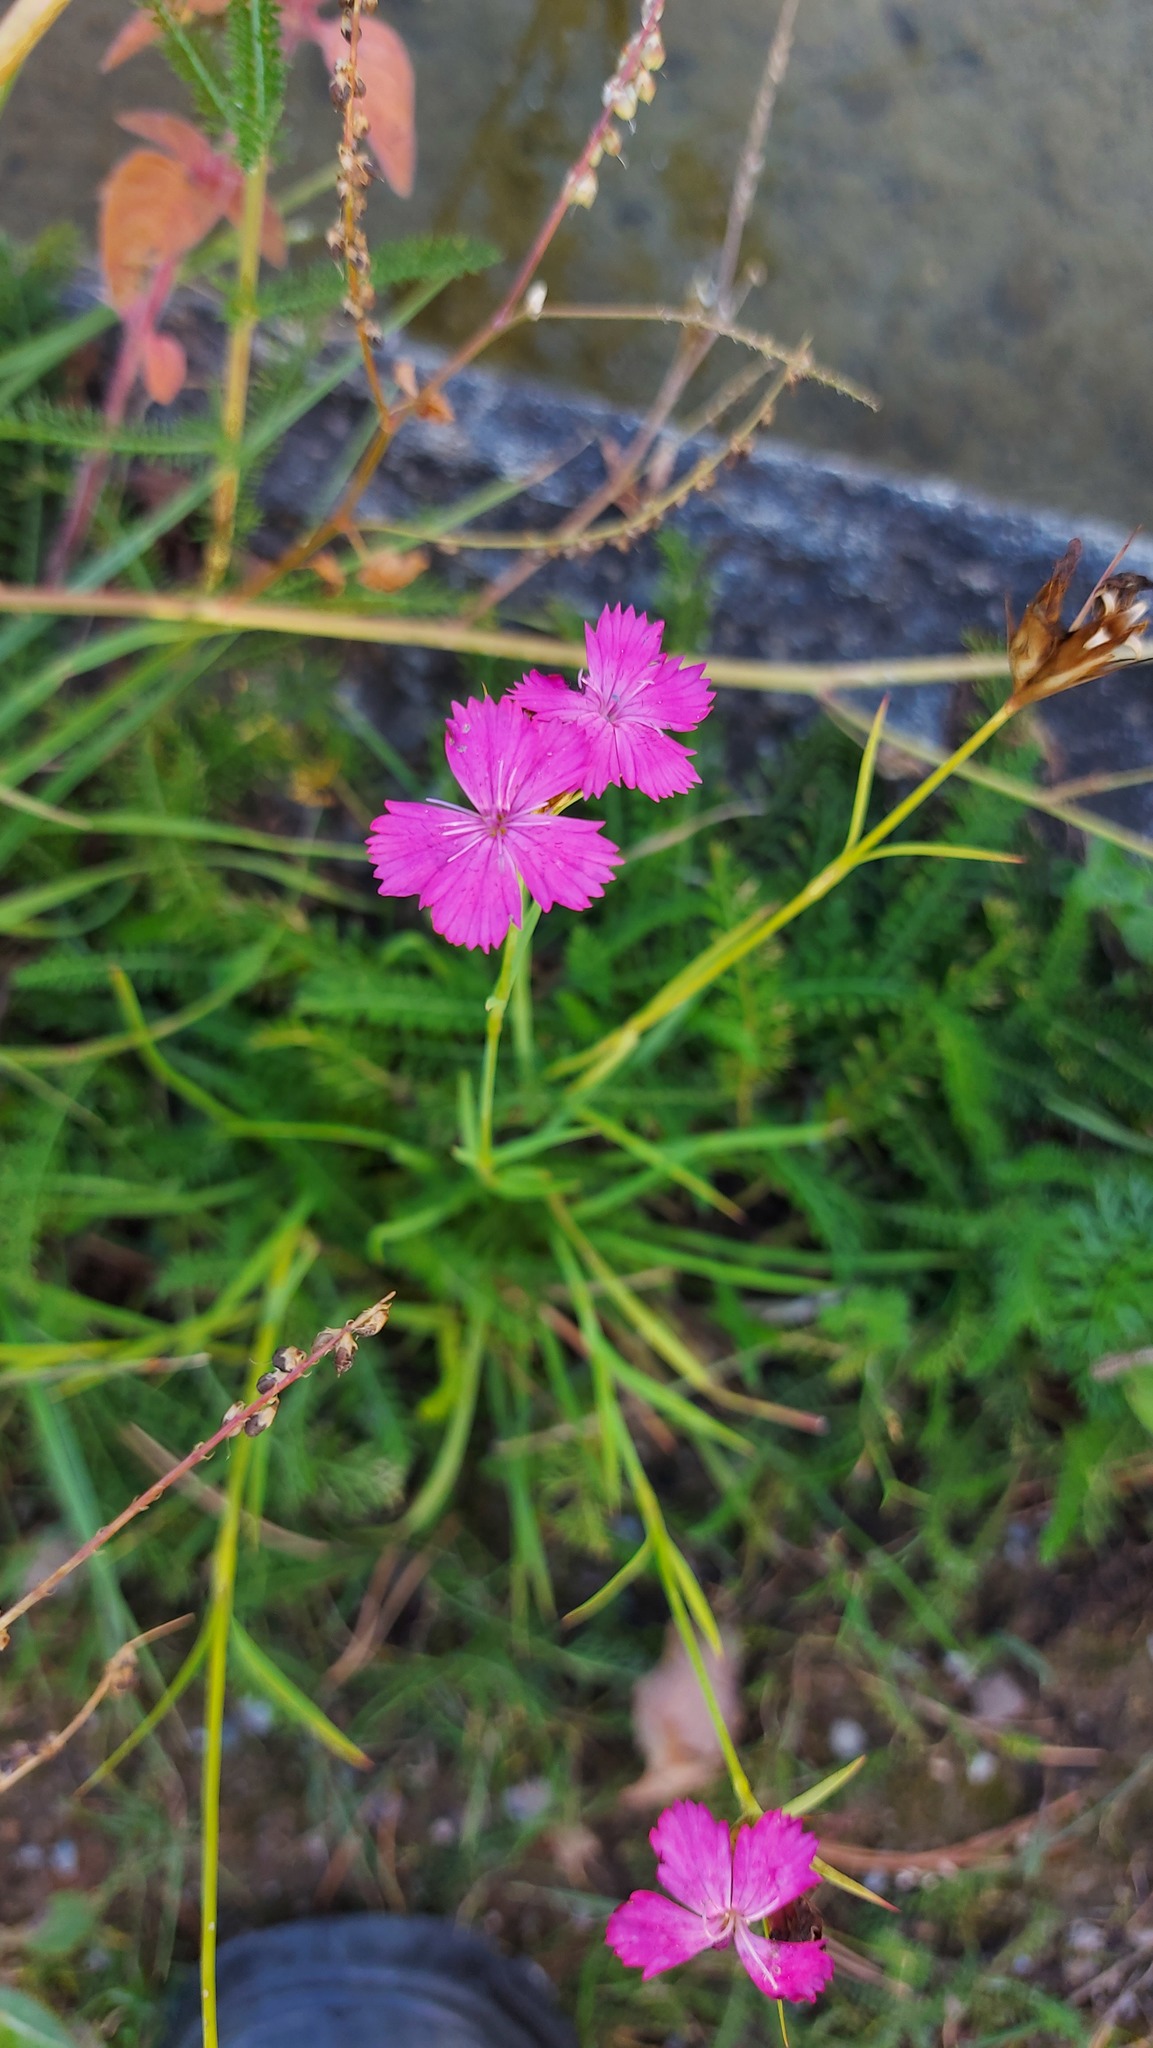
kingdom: Plantae
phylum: Tracheophyta
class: Magnoliopsida
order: Caryophyllales
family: Caryophyllaceae
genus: Dianthus
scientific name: Dianthus carthusianorum
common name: Carthusian pink
